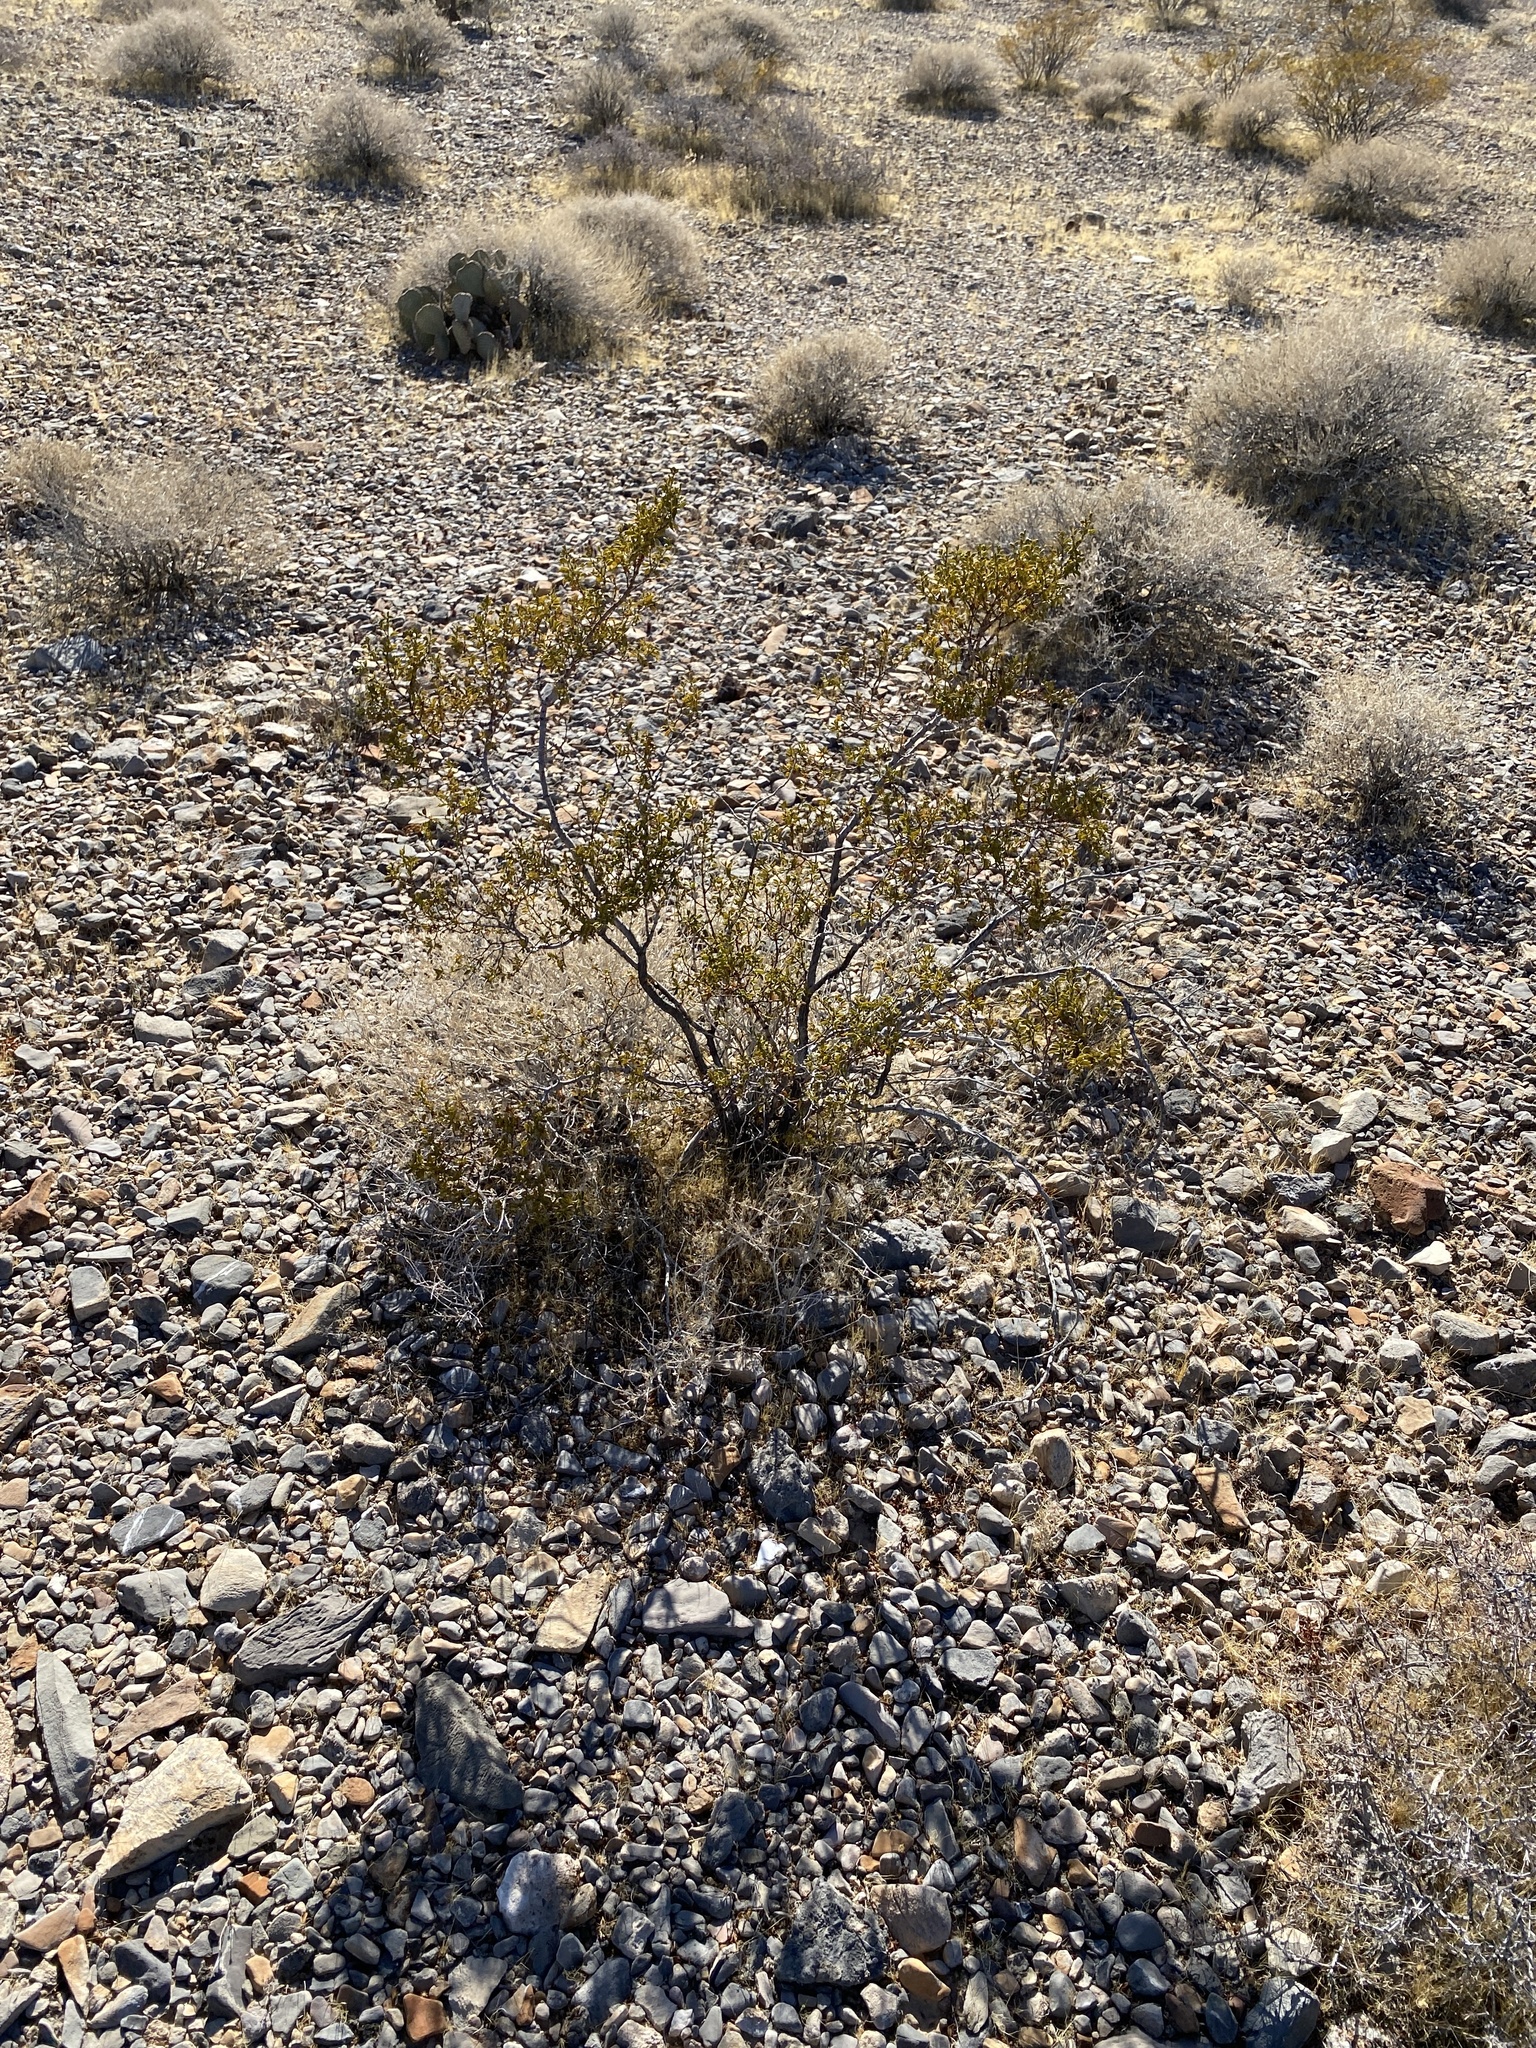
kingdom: Plantae
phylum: Tracheophyta
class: Magnoliopsida
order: Zygophyllales
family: Zygophyllaceae
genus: Larrea
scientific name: Larrea tridentata
